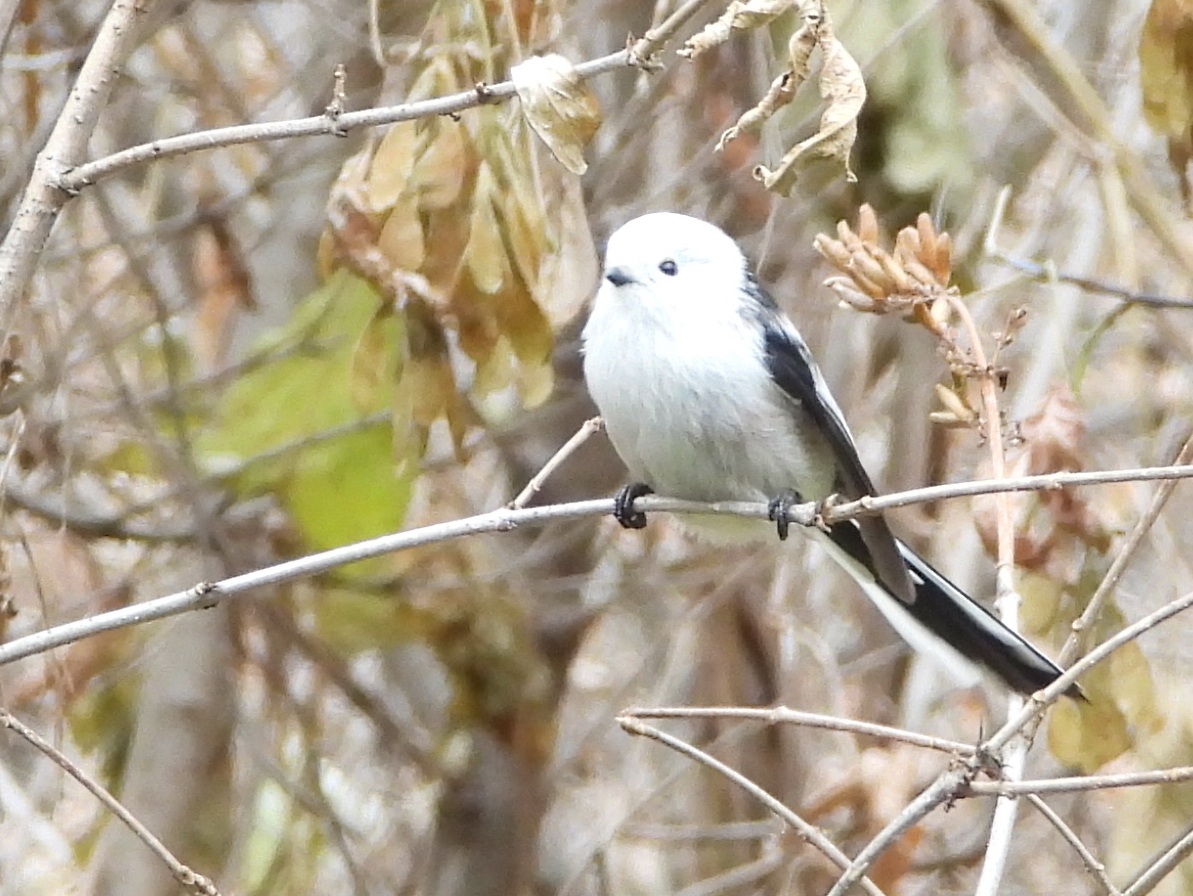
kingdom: Animalia
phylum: Chordata
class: Aves
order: Passeriformes
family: Aegithalidae
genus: Aegithalos
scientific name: Aegithalos caudatus
